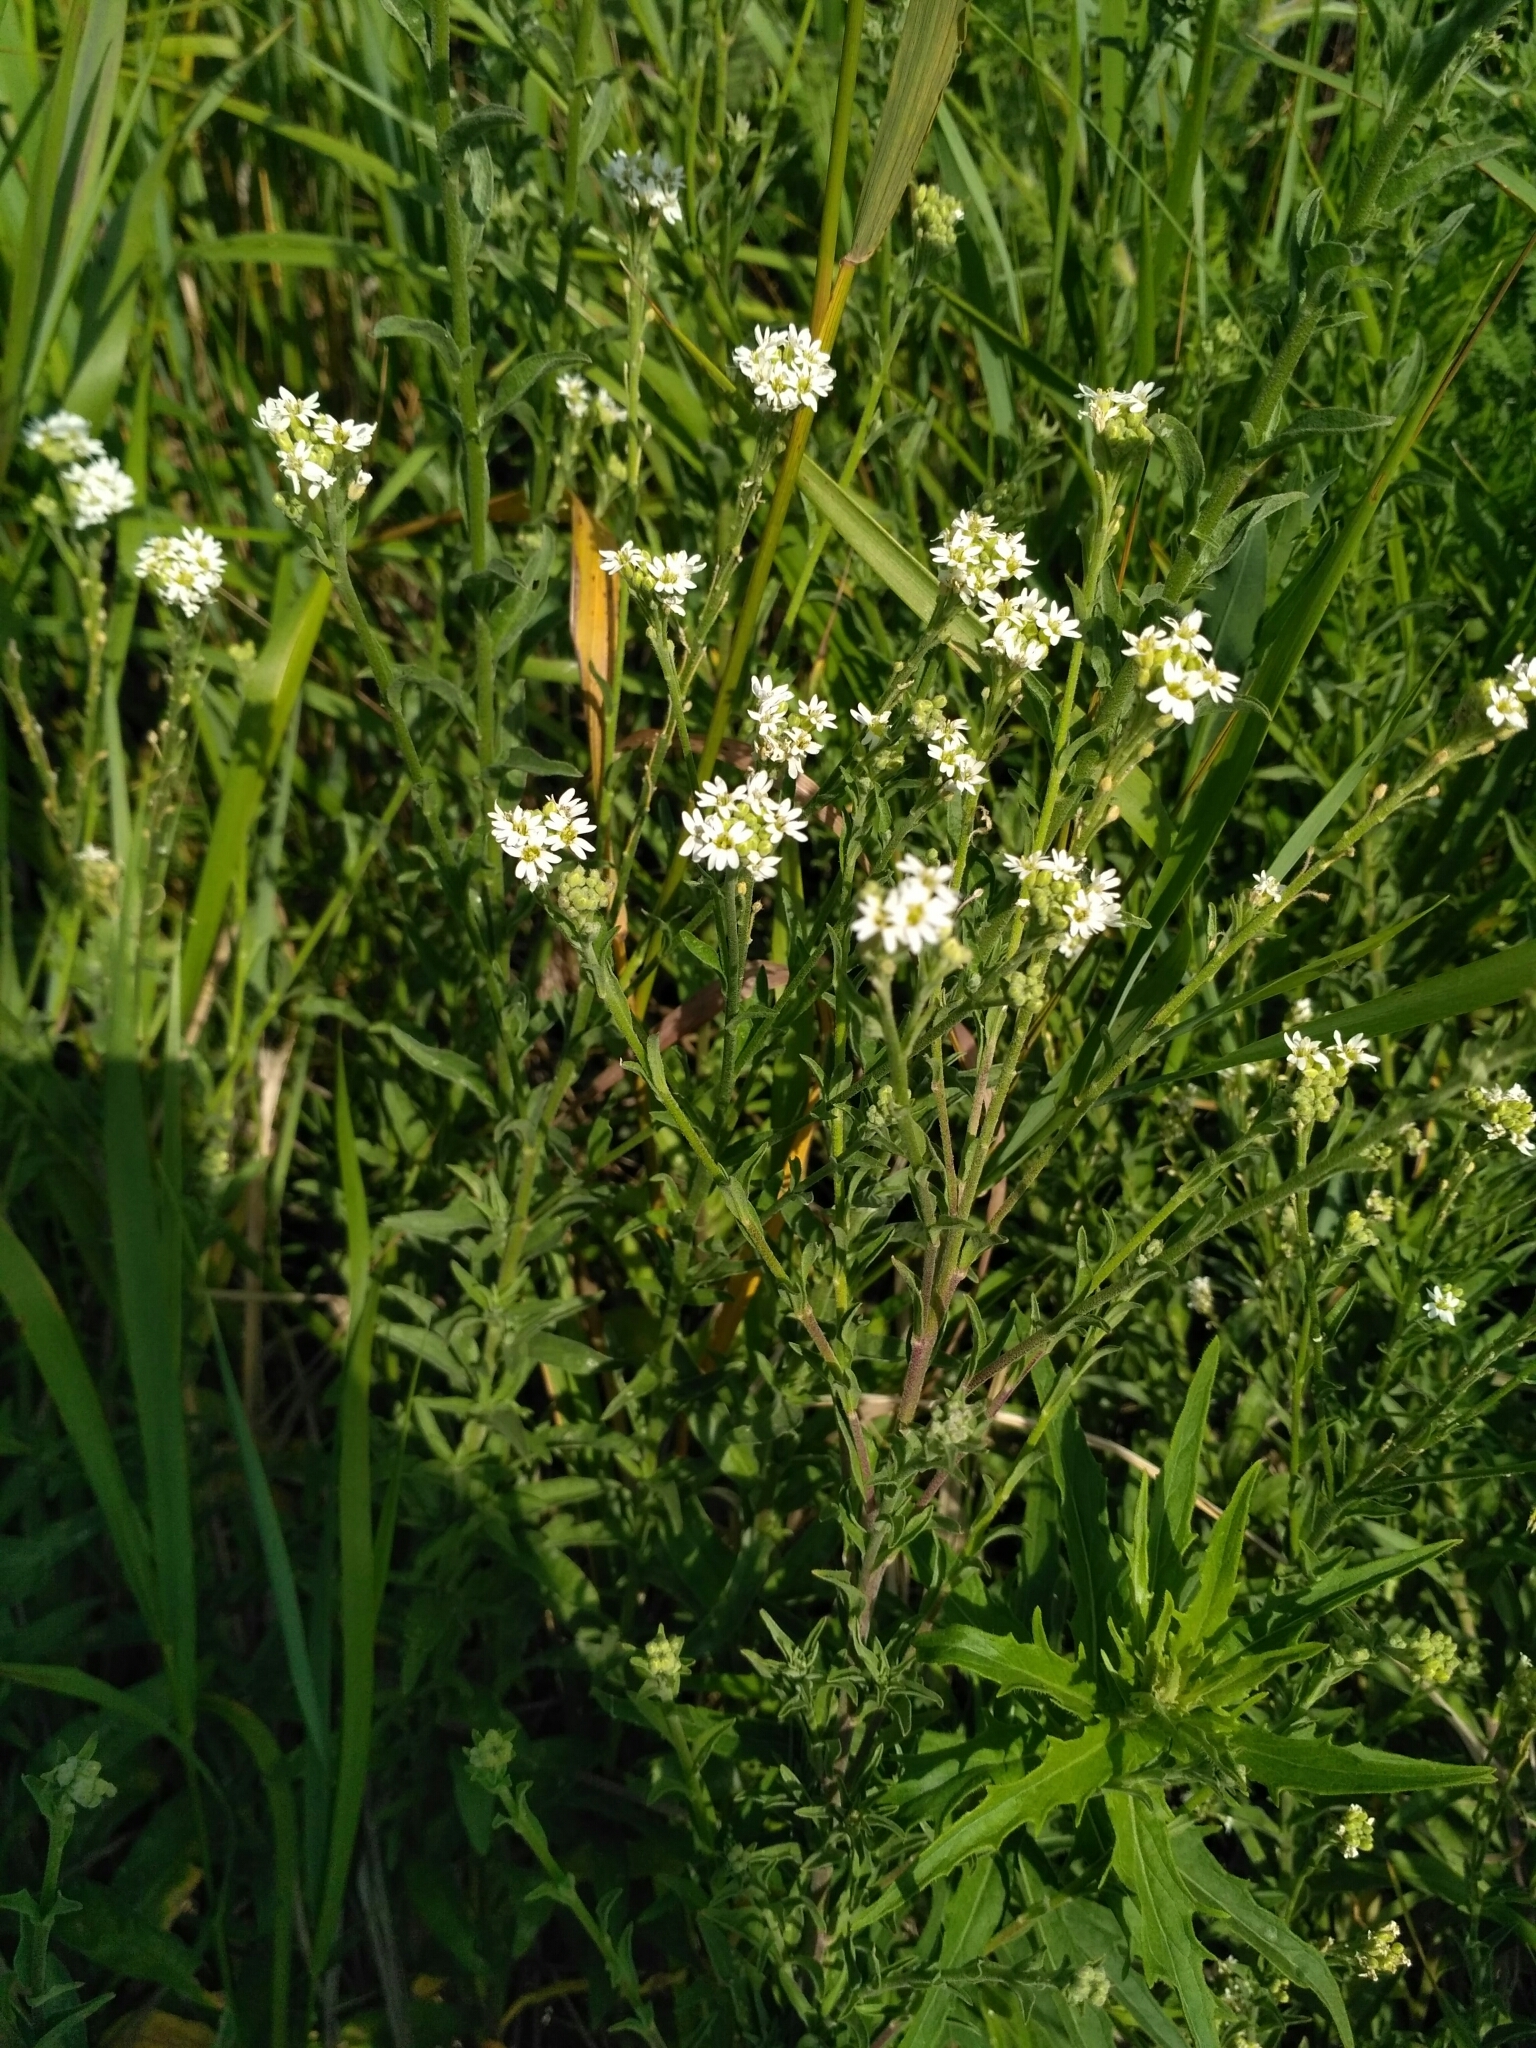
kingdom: Plantae
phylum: Tracheophyta
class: Magnoliopsida
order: Brassicales
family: Brassicaceae
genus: Berteroa
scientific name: Berteroa incana
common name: Hoary alison
